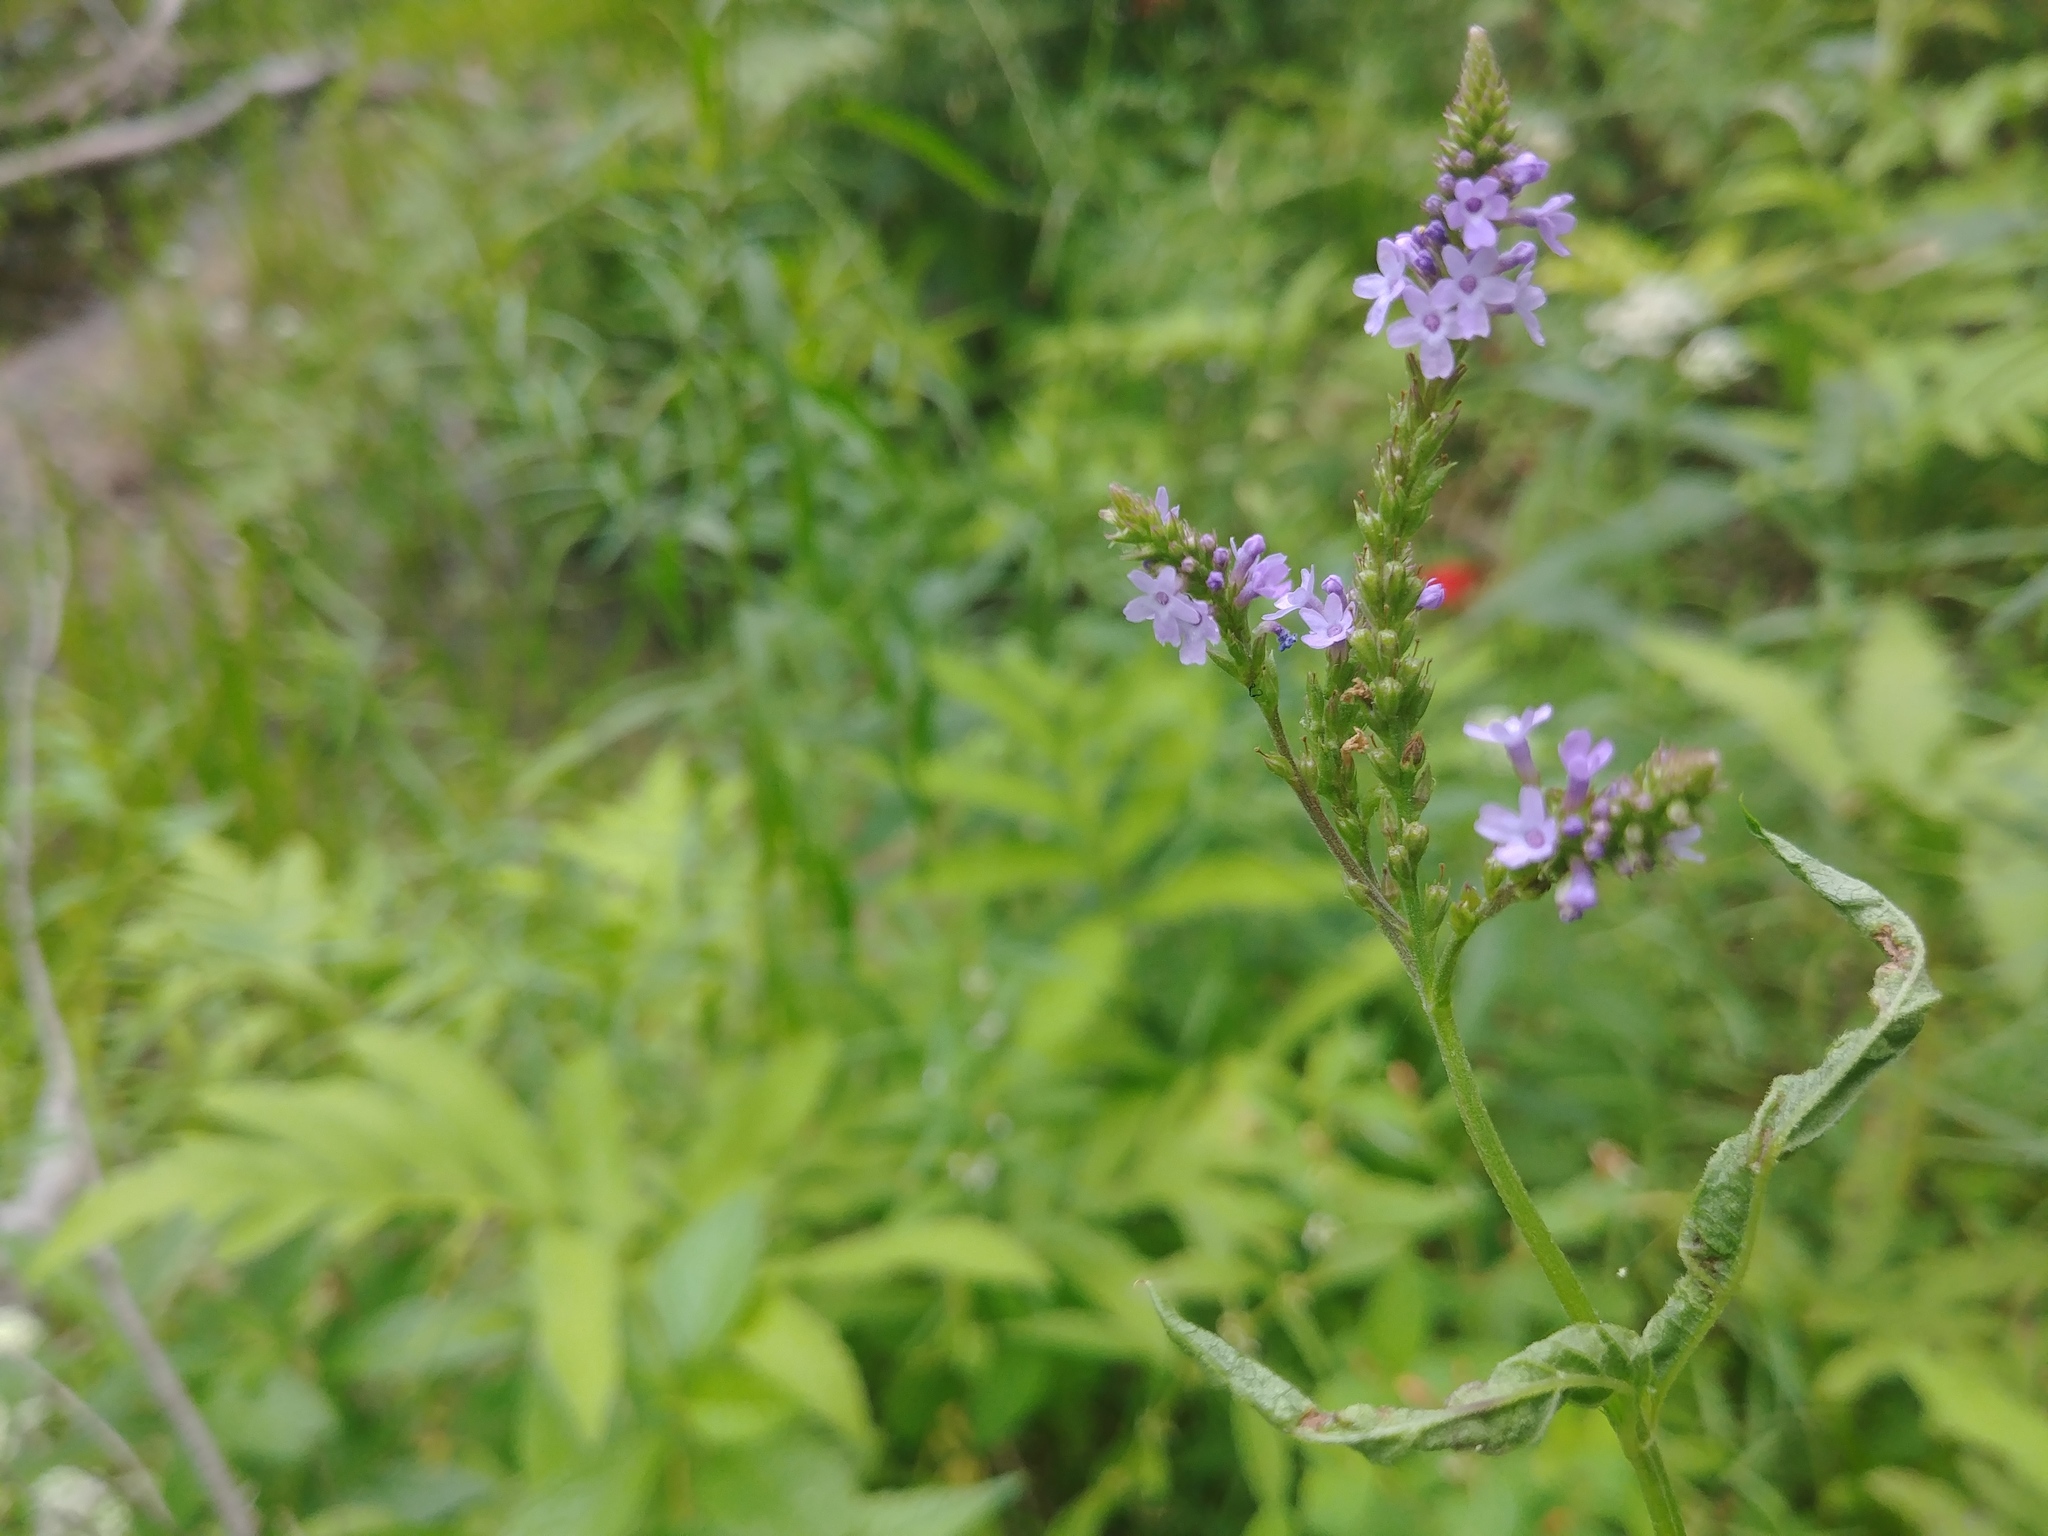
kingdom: Plantae
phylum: Tracheophyta
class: Magnoliopsida
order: Lamiales
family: Verbenaceae
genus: Verbena
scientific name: Verbena hastata
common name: American blue vervain
